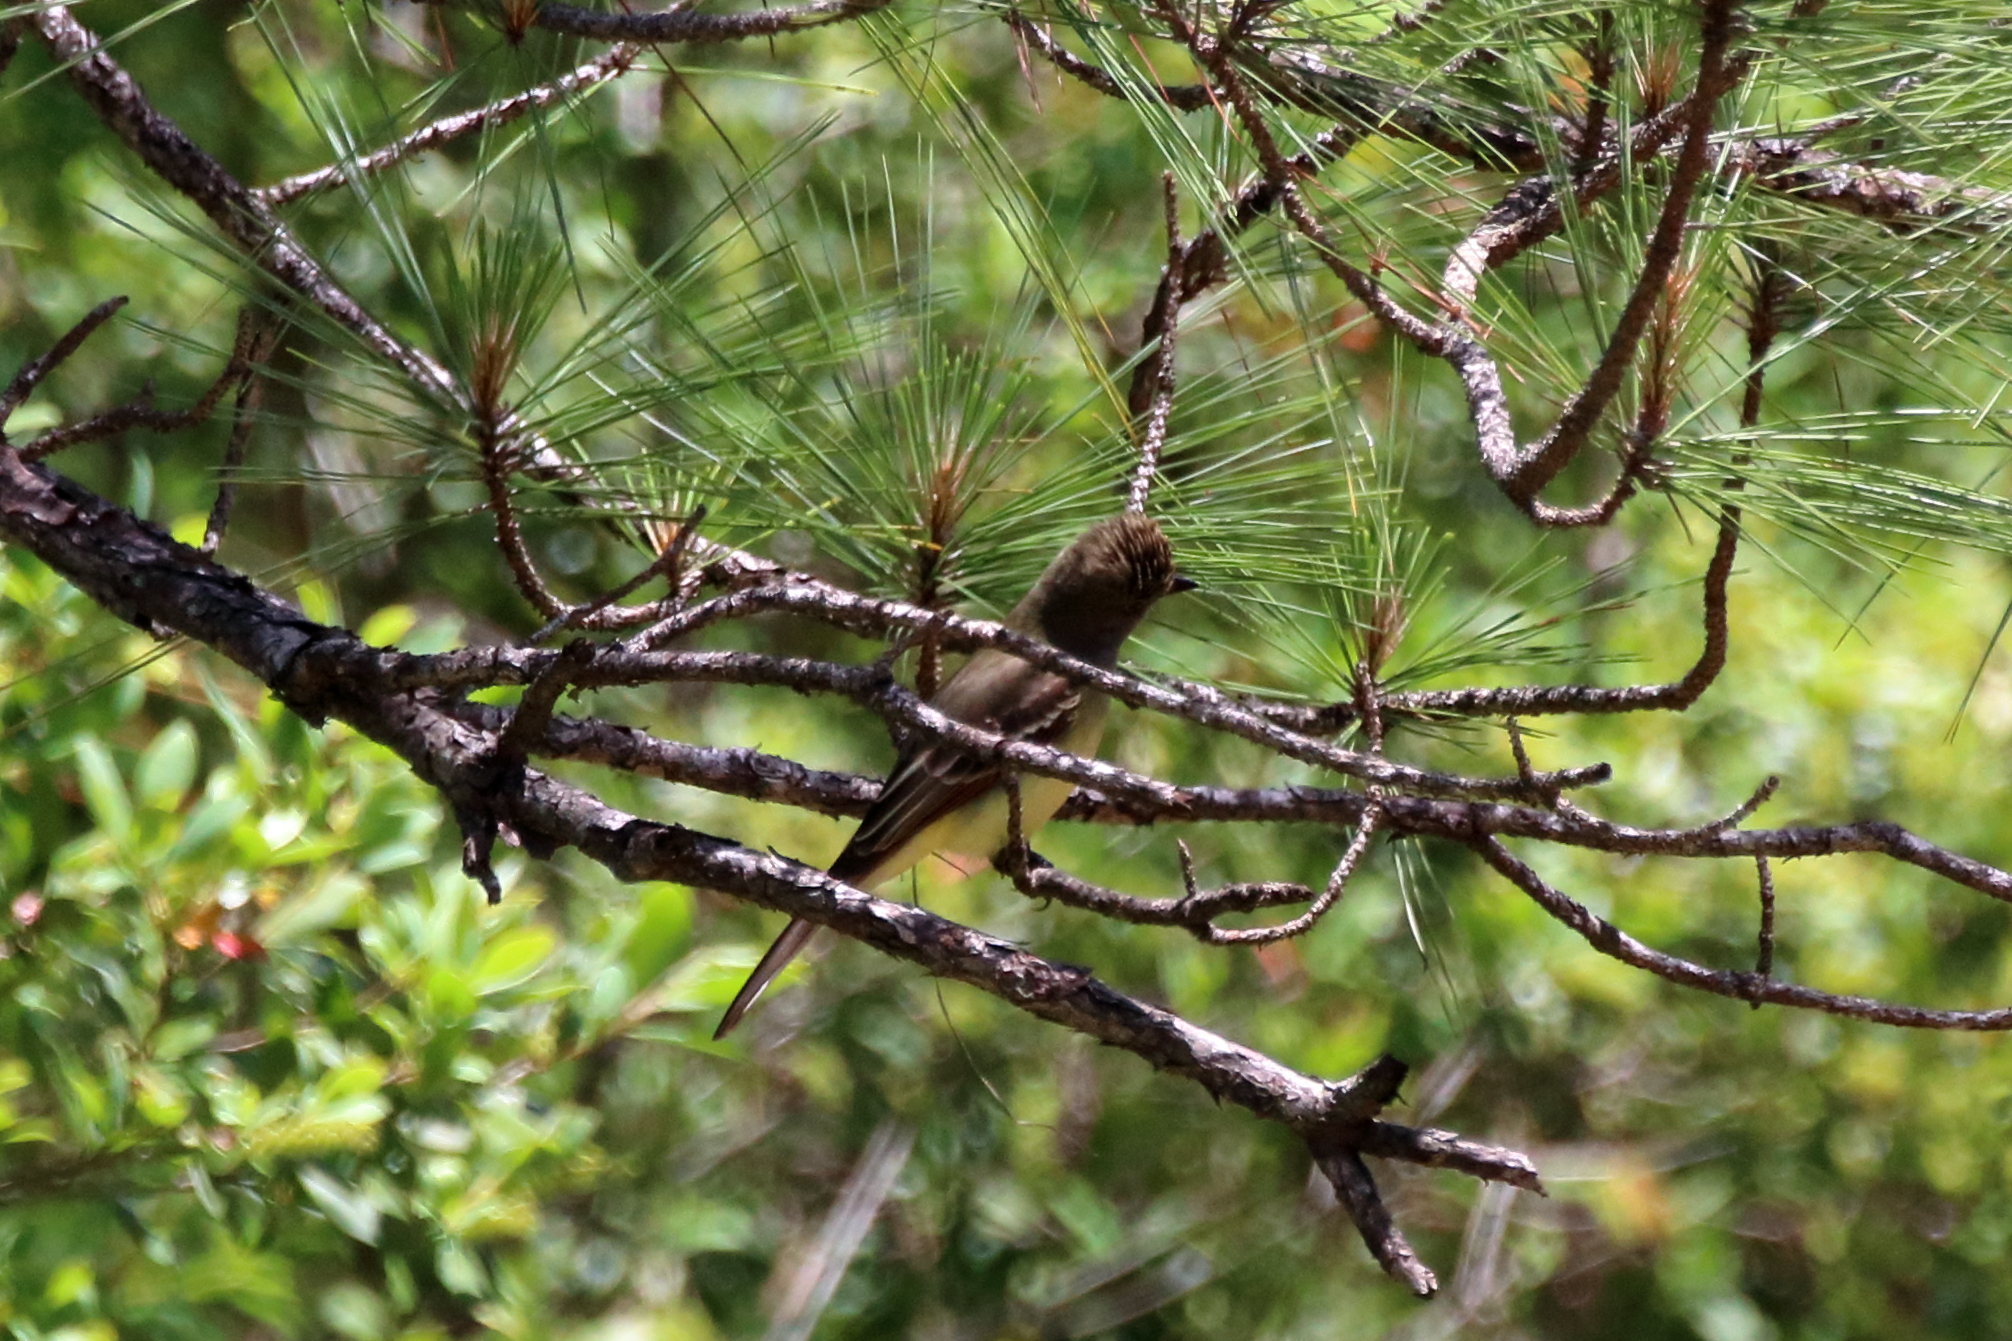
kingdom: Animalia
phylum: Chordata
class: Aves
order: Passeriformes
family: Tyrannidae
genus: Myiarchus
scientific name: Myiarchus crinitus
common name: Great crested flycatcher
